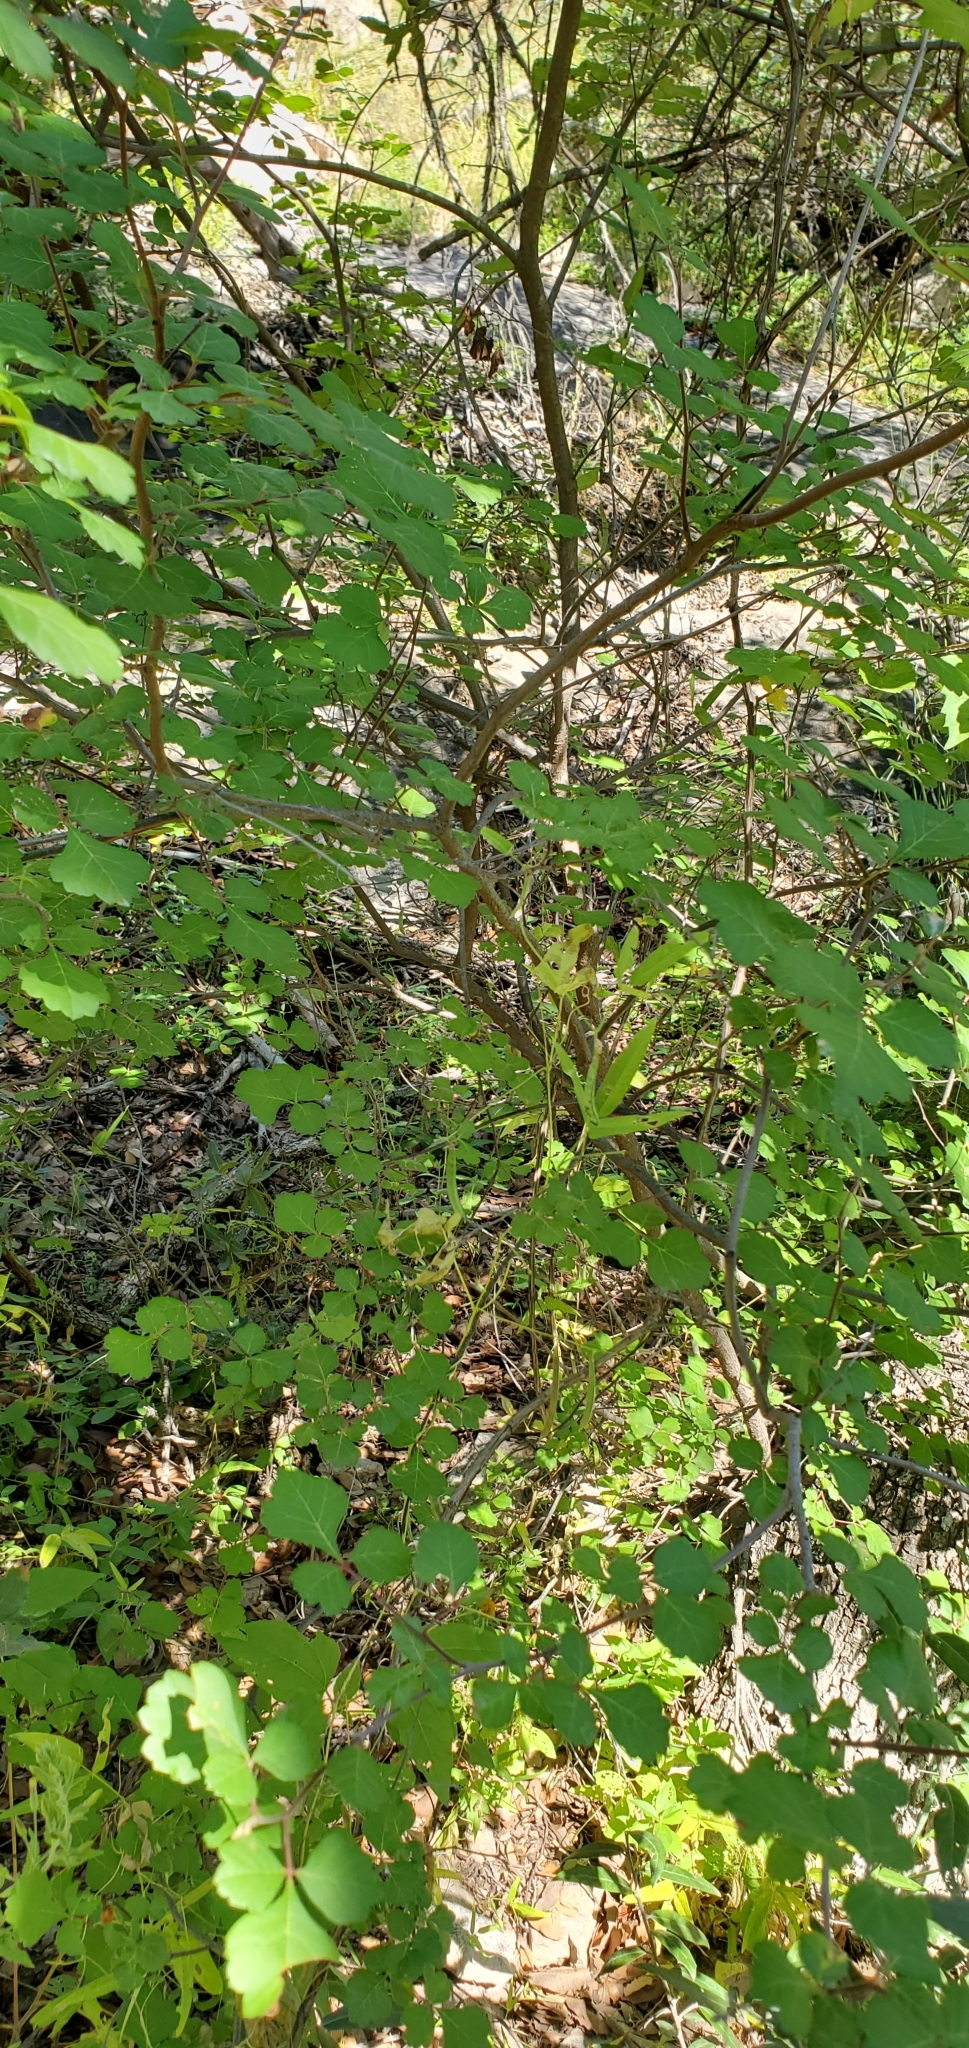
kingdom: Plantae
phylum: Tracheophyta
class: Magnoliopsida
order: Sapindales
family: Anacardiaceae
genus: Rhus
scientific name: Rhus trilobata
